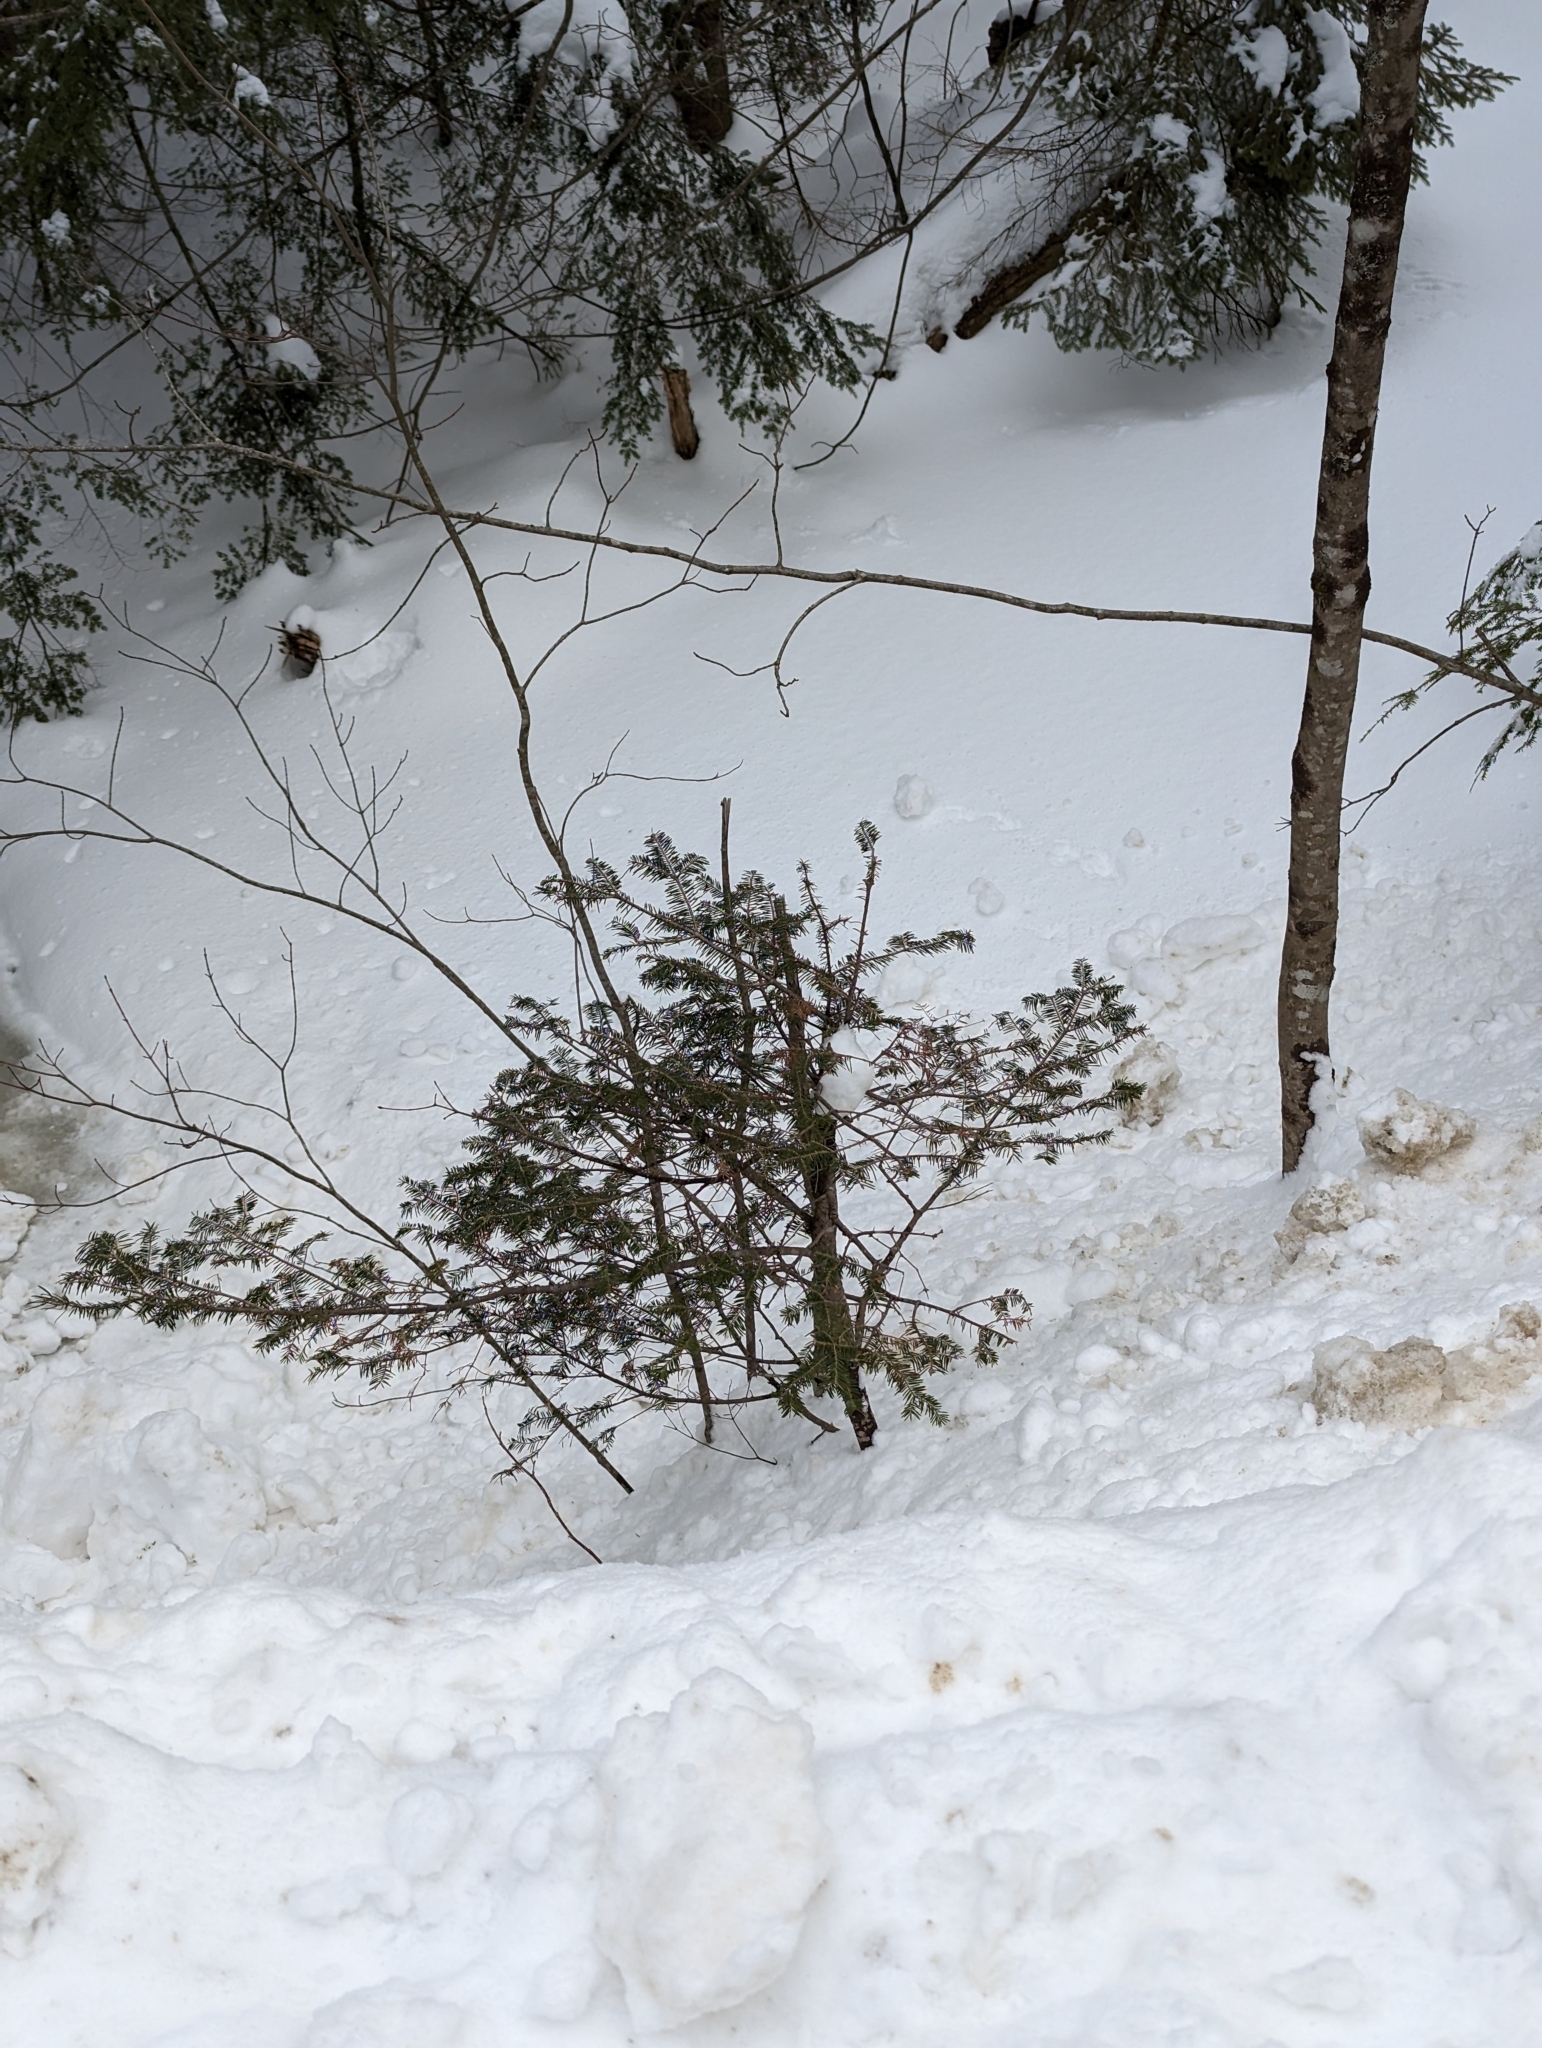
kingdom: Plantae
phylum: Tracheophyta
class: Pinopsida
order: Pinales
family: Pinaceae
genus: Abies
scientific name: Abies balsamea
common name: Balsam fir
